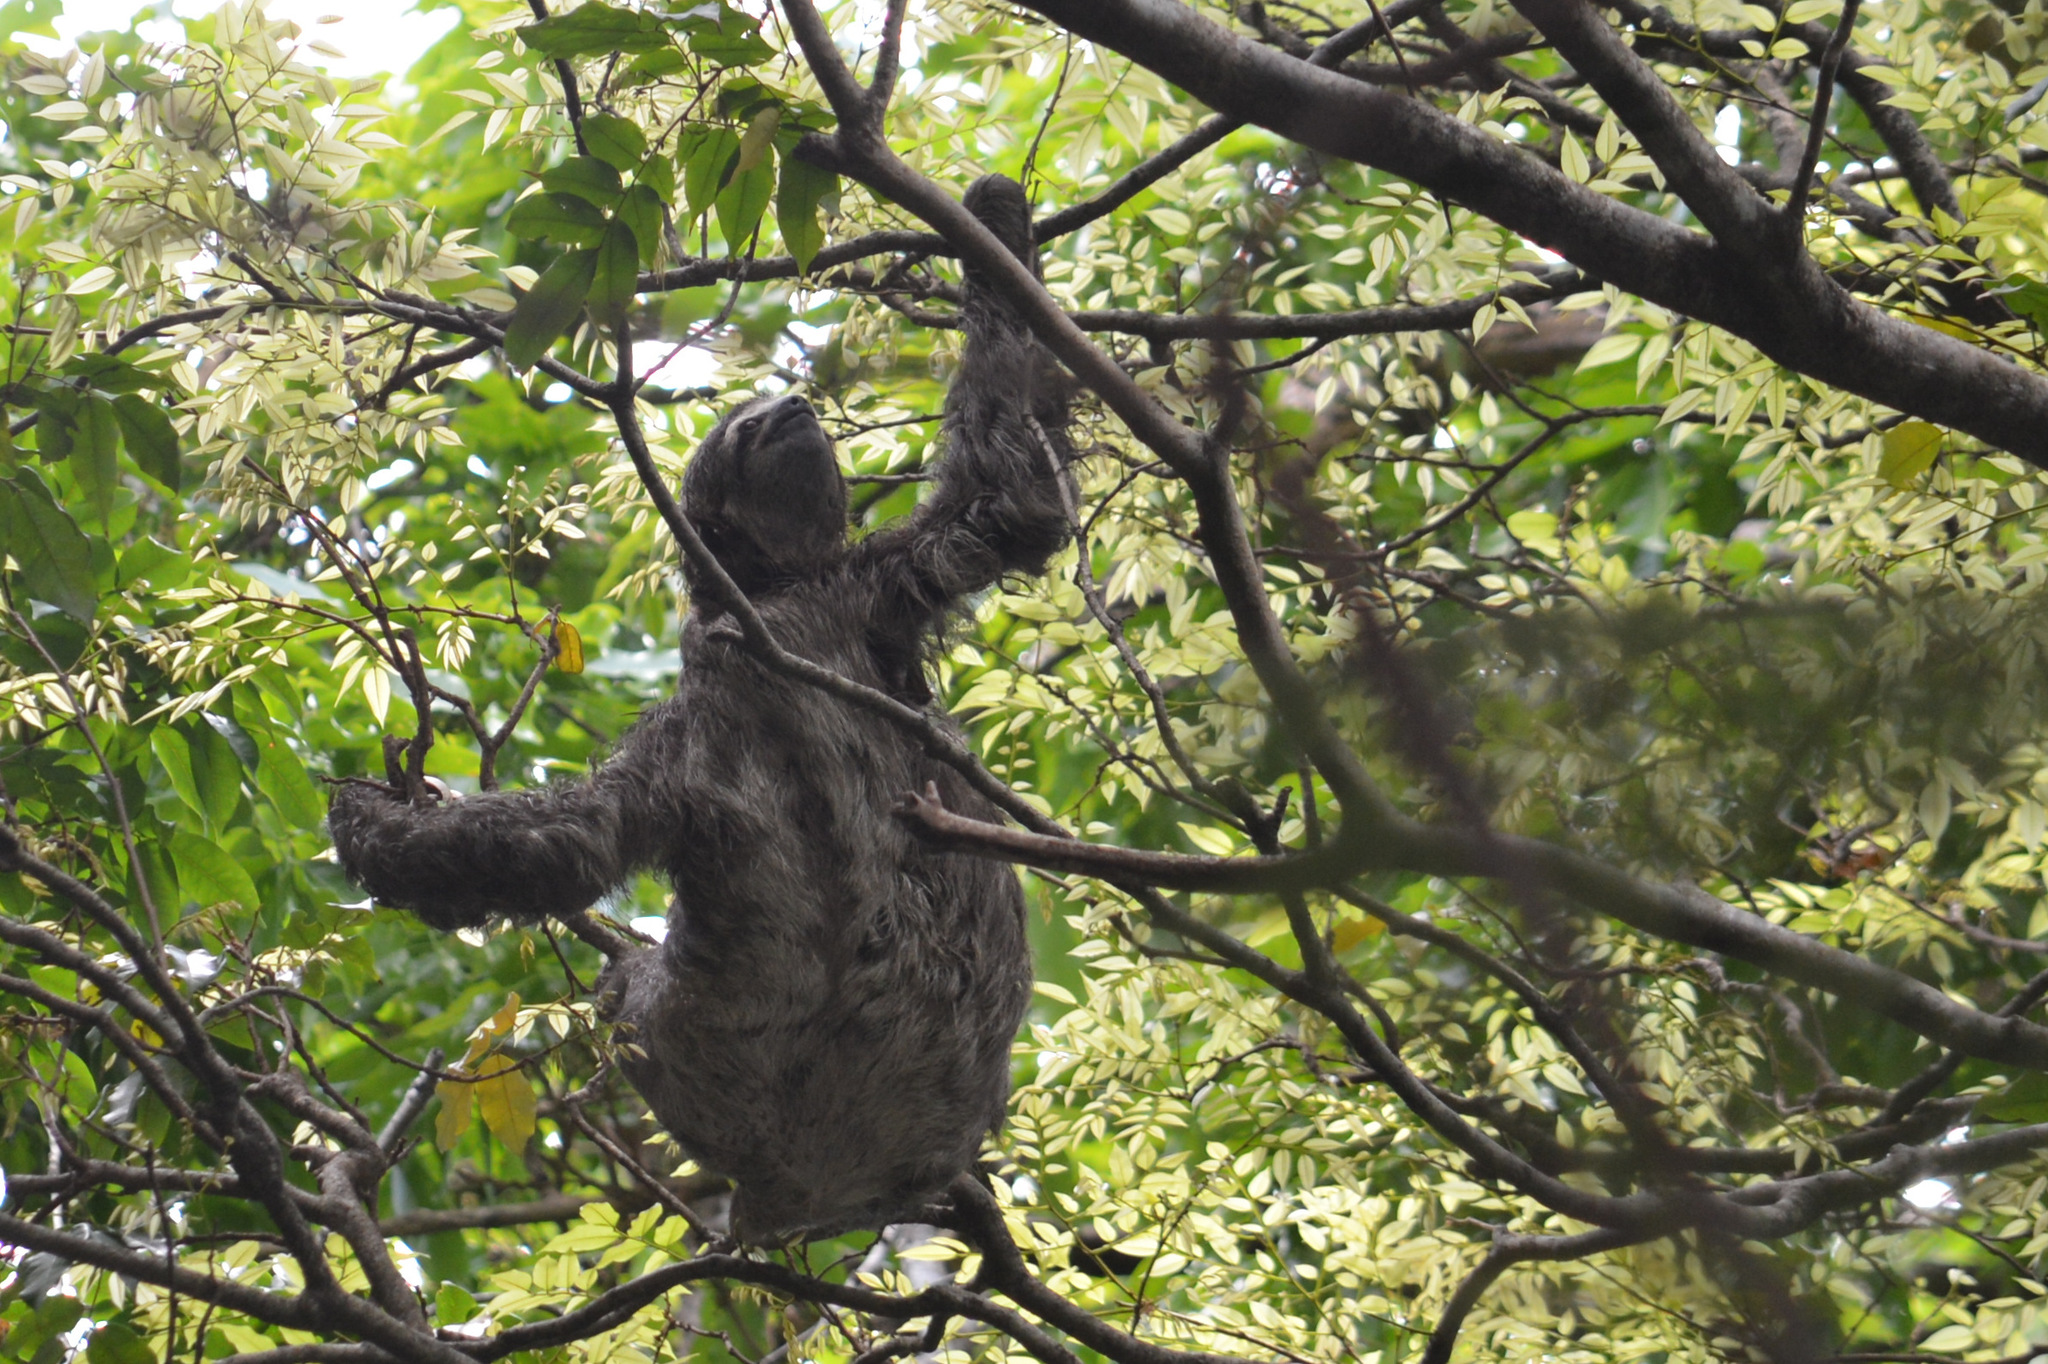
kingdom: Animalia
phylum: Chordata
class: Mammalia
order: Pilosa
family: Bradypodidae
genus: Bradypus
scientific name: Bradypus variegatus
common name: Brown-throated three-toed sloth
